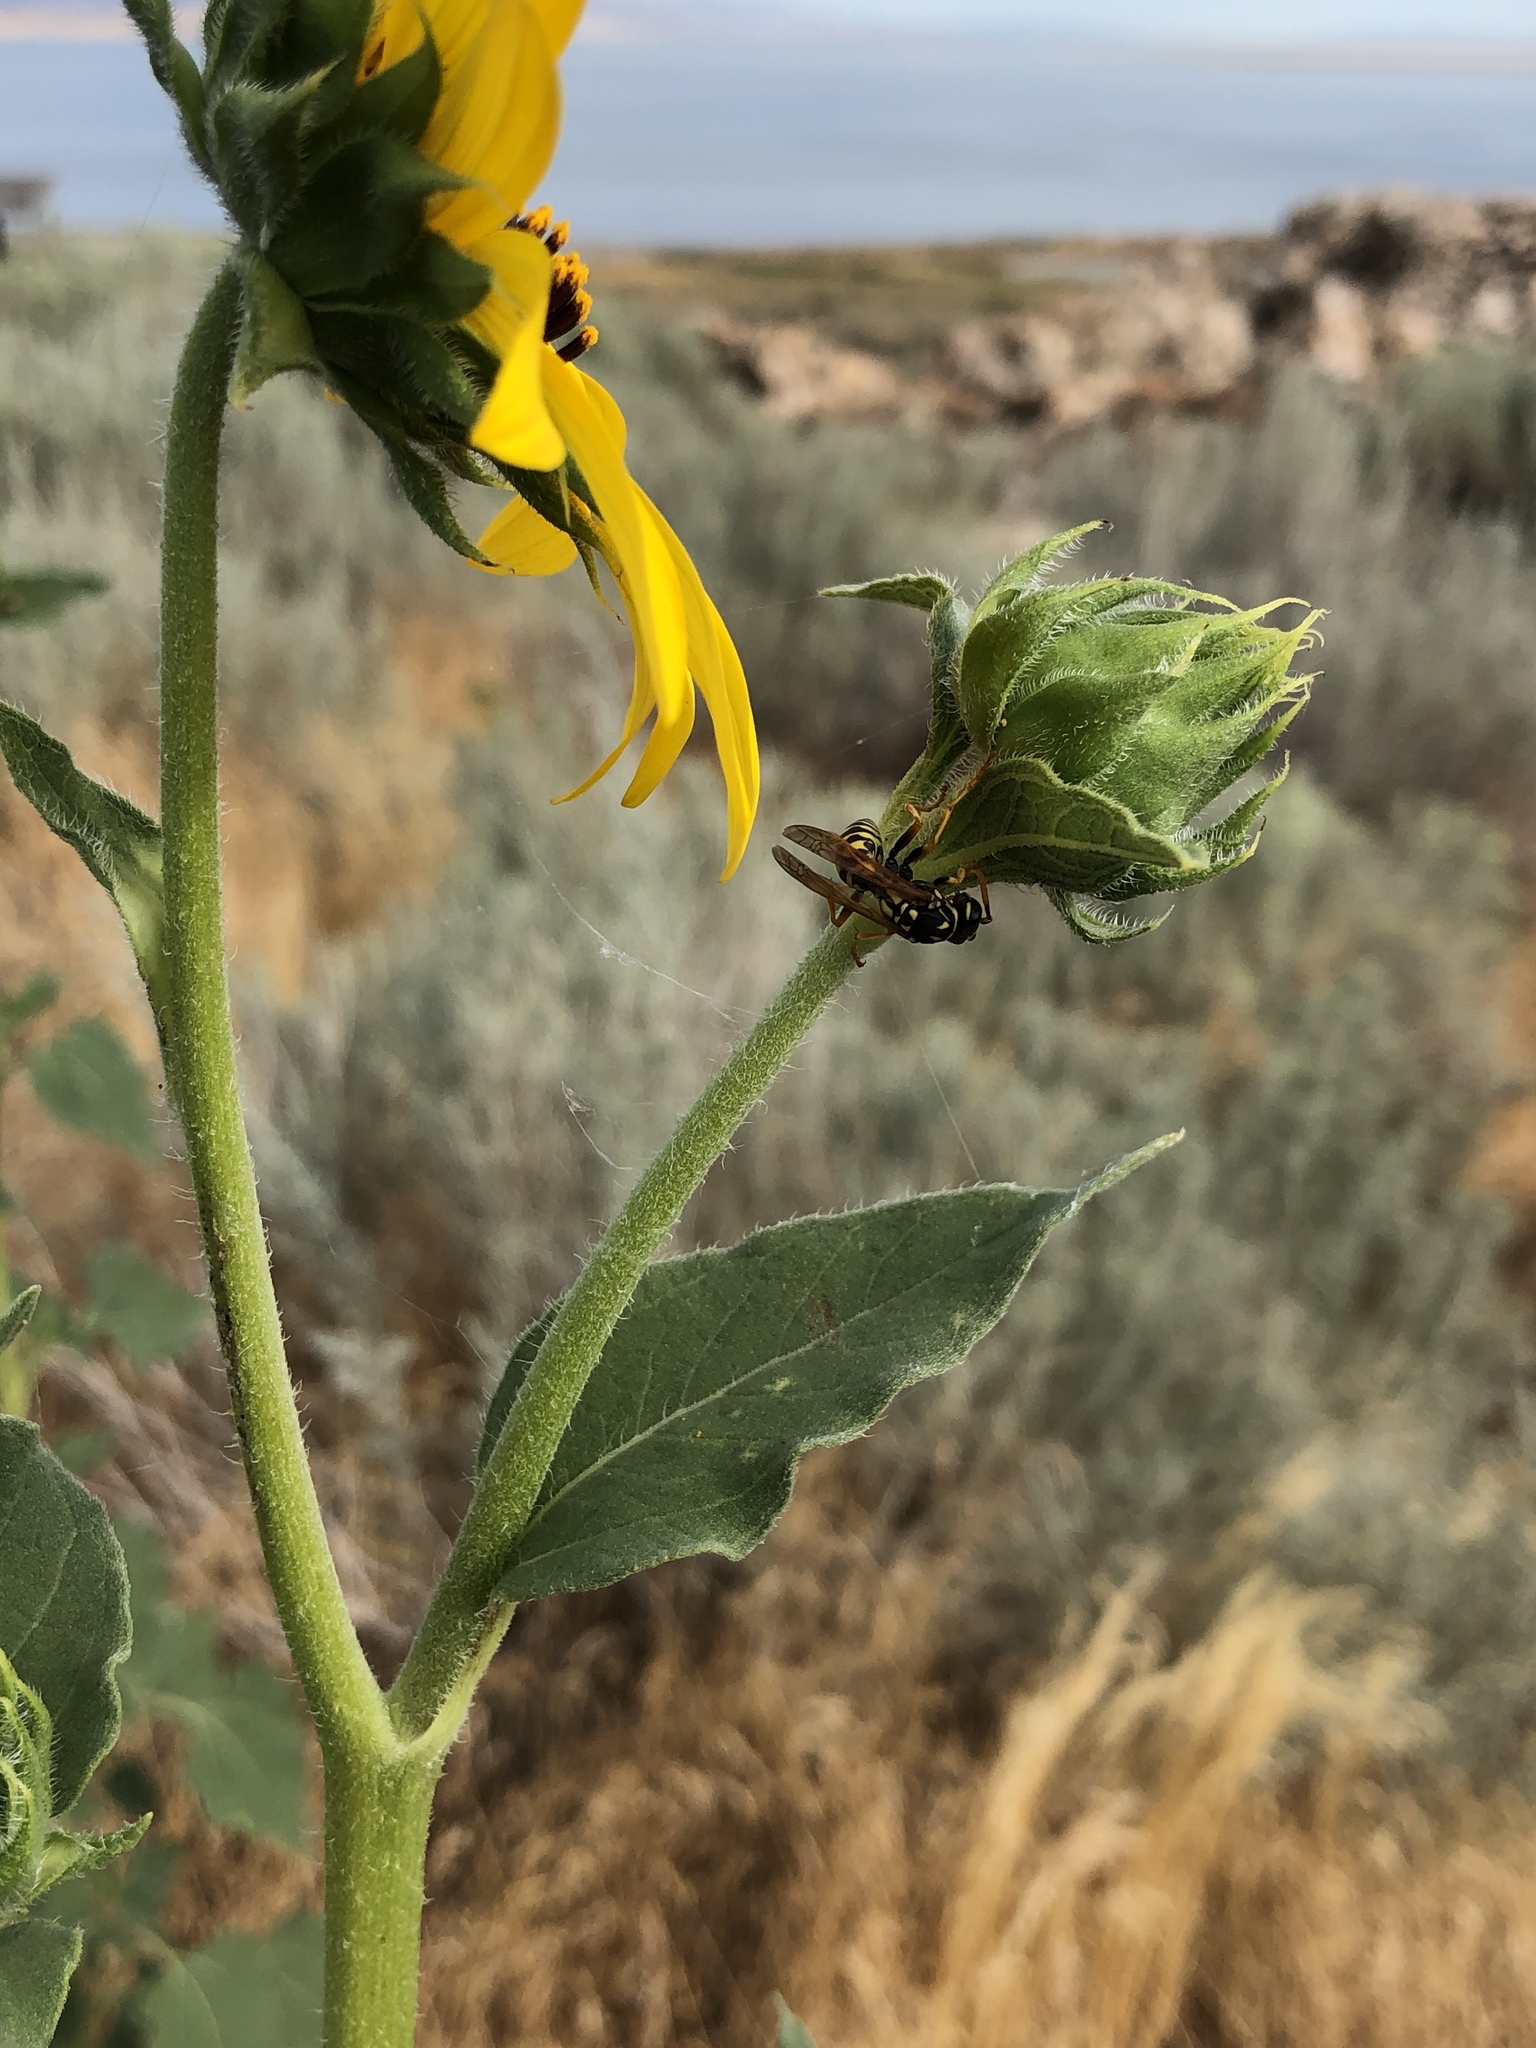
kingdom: Animalia
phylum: Arthropoda
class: Insecta
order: Hymenoptera
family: Eumenidae
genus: Polistes
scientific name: Polistes dominula
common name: Paper wasp
